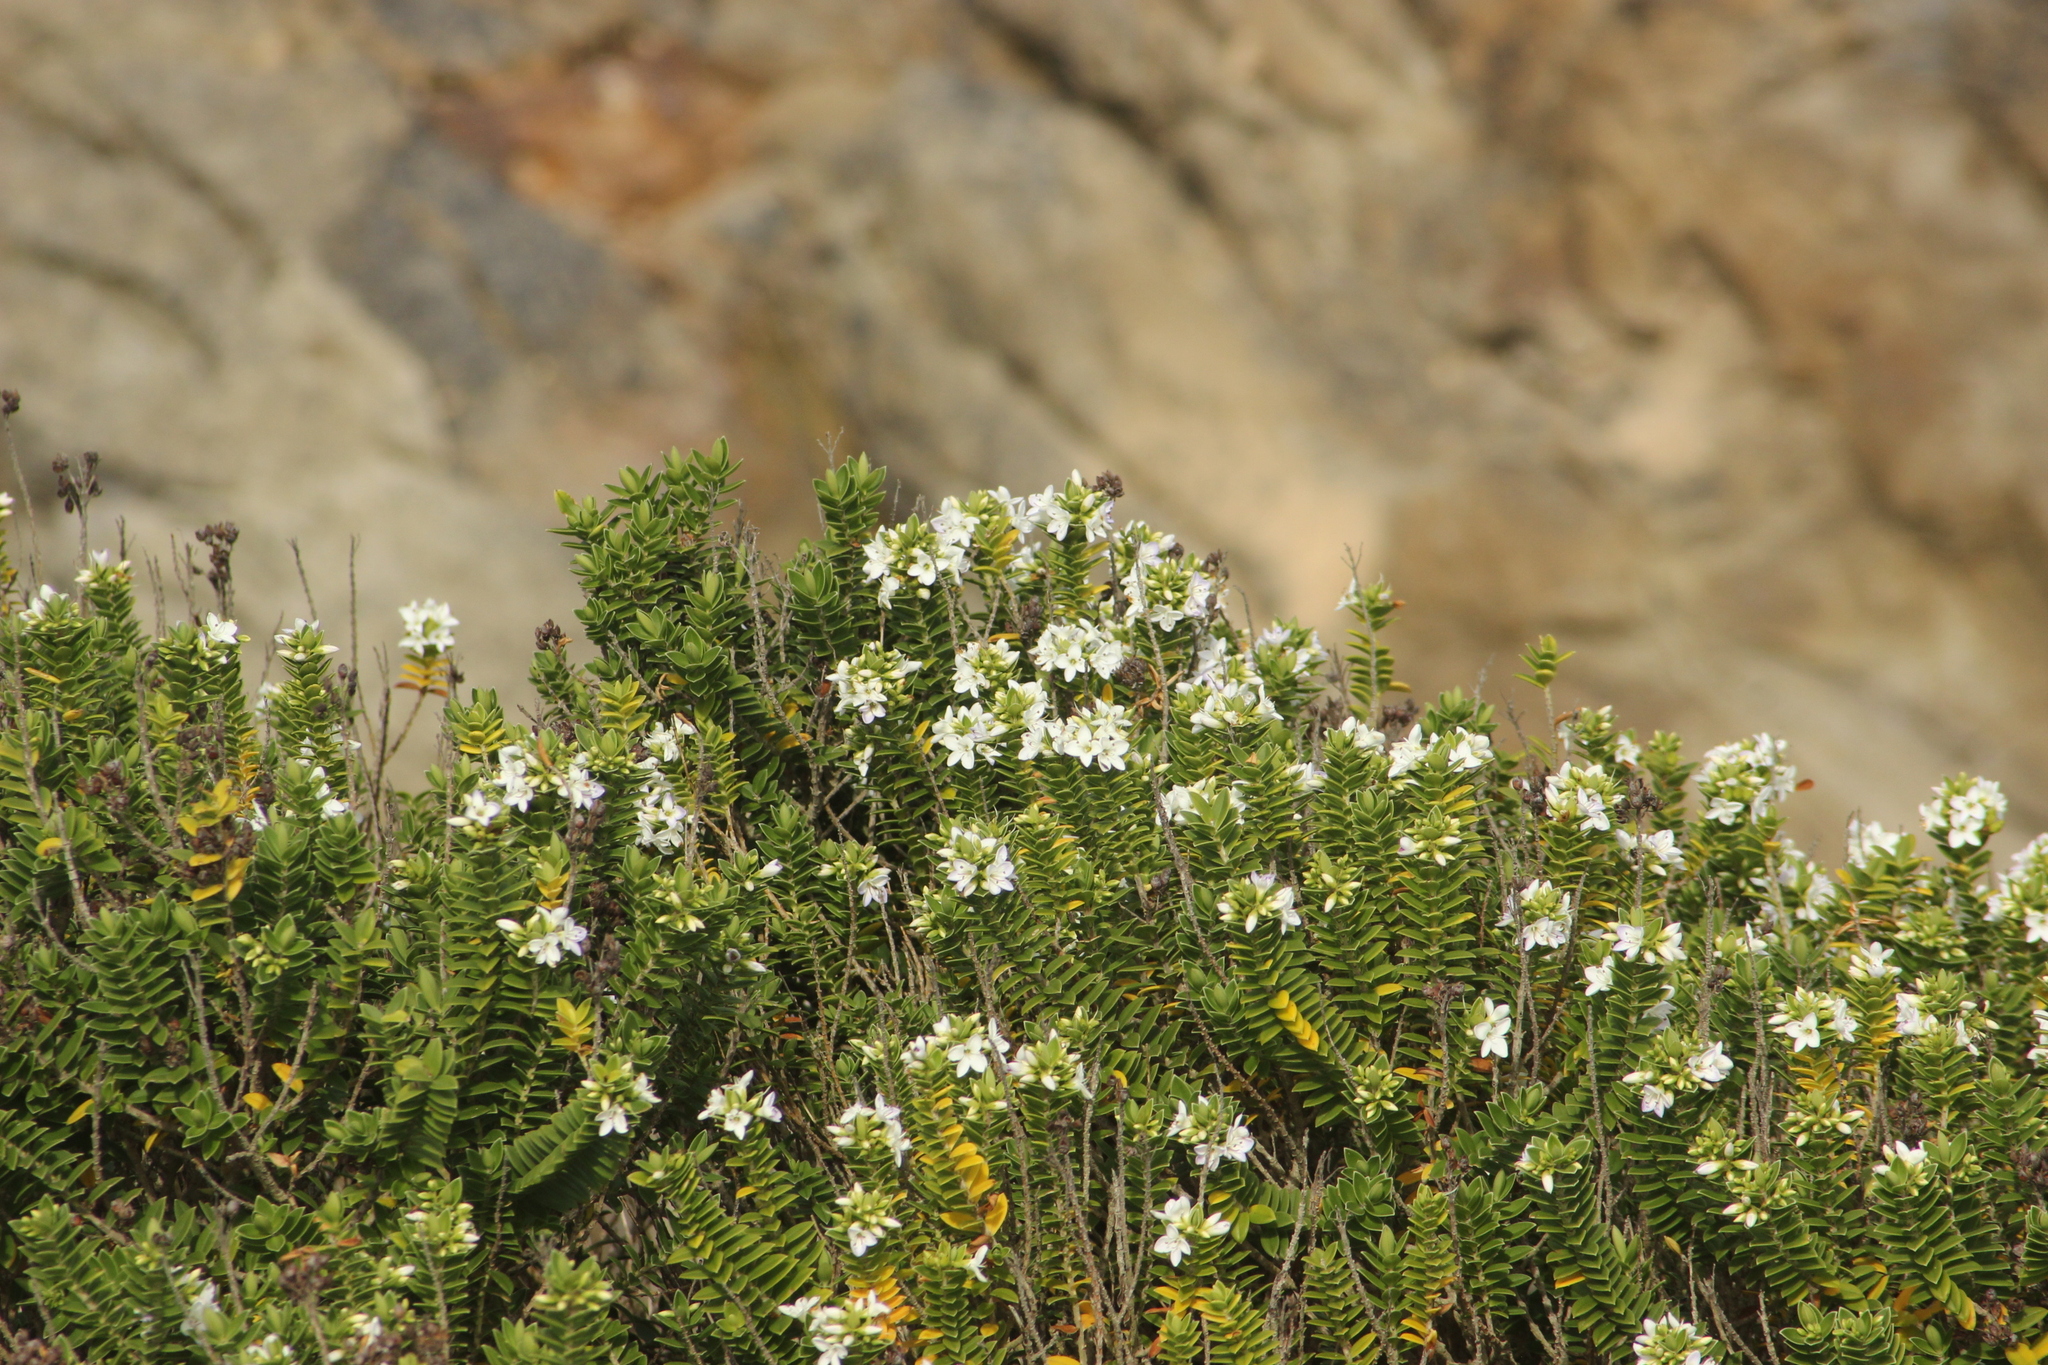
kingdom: Plantae
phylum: Tracheophyta
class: Magnoliopsida
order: Lamiales
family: Plantaginaceae
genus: Veronica
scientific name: Veronica elliptica
